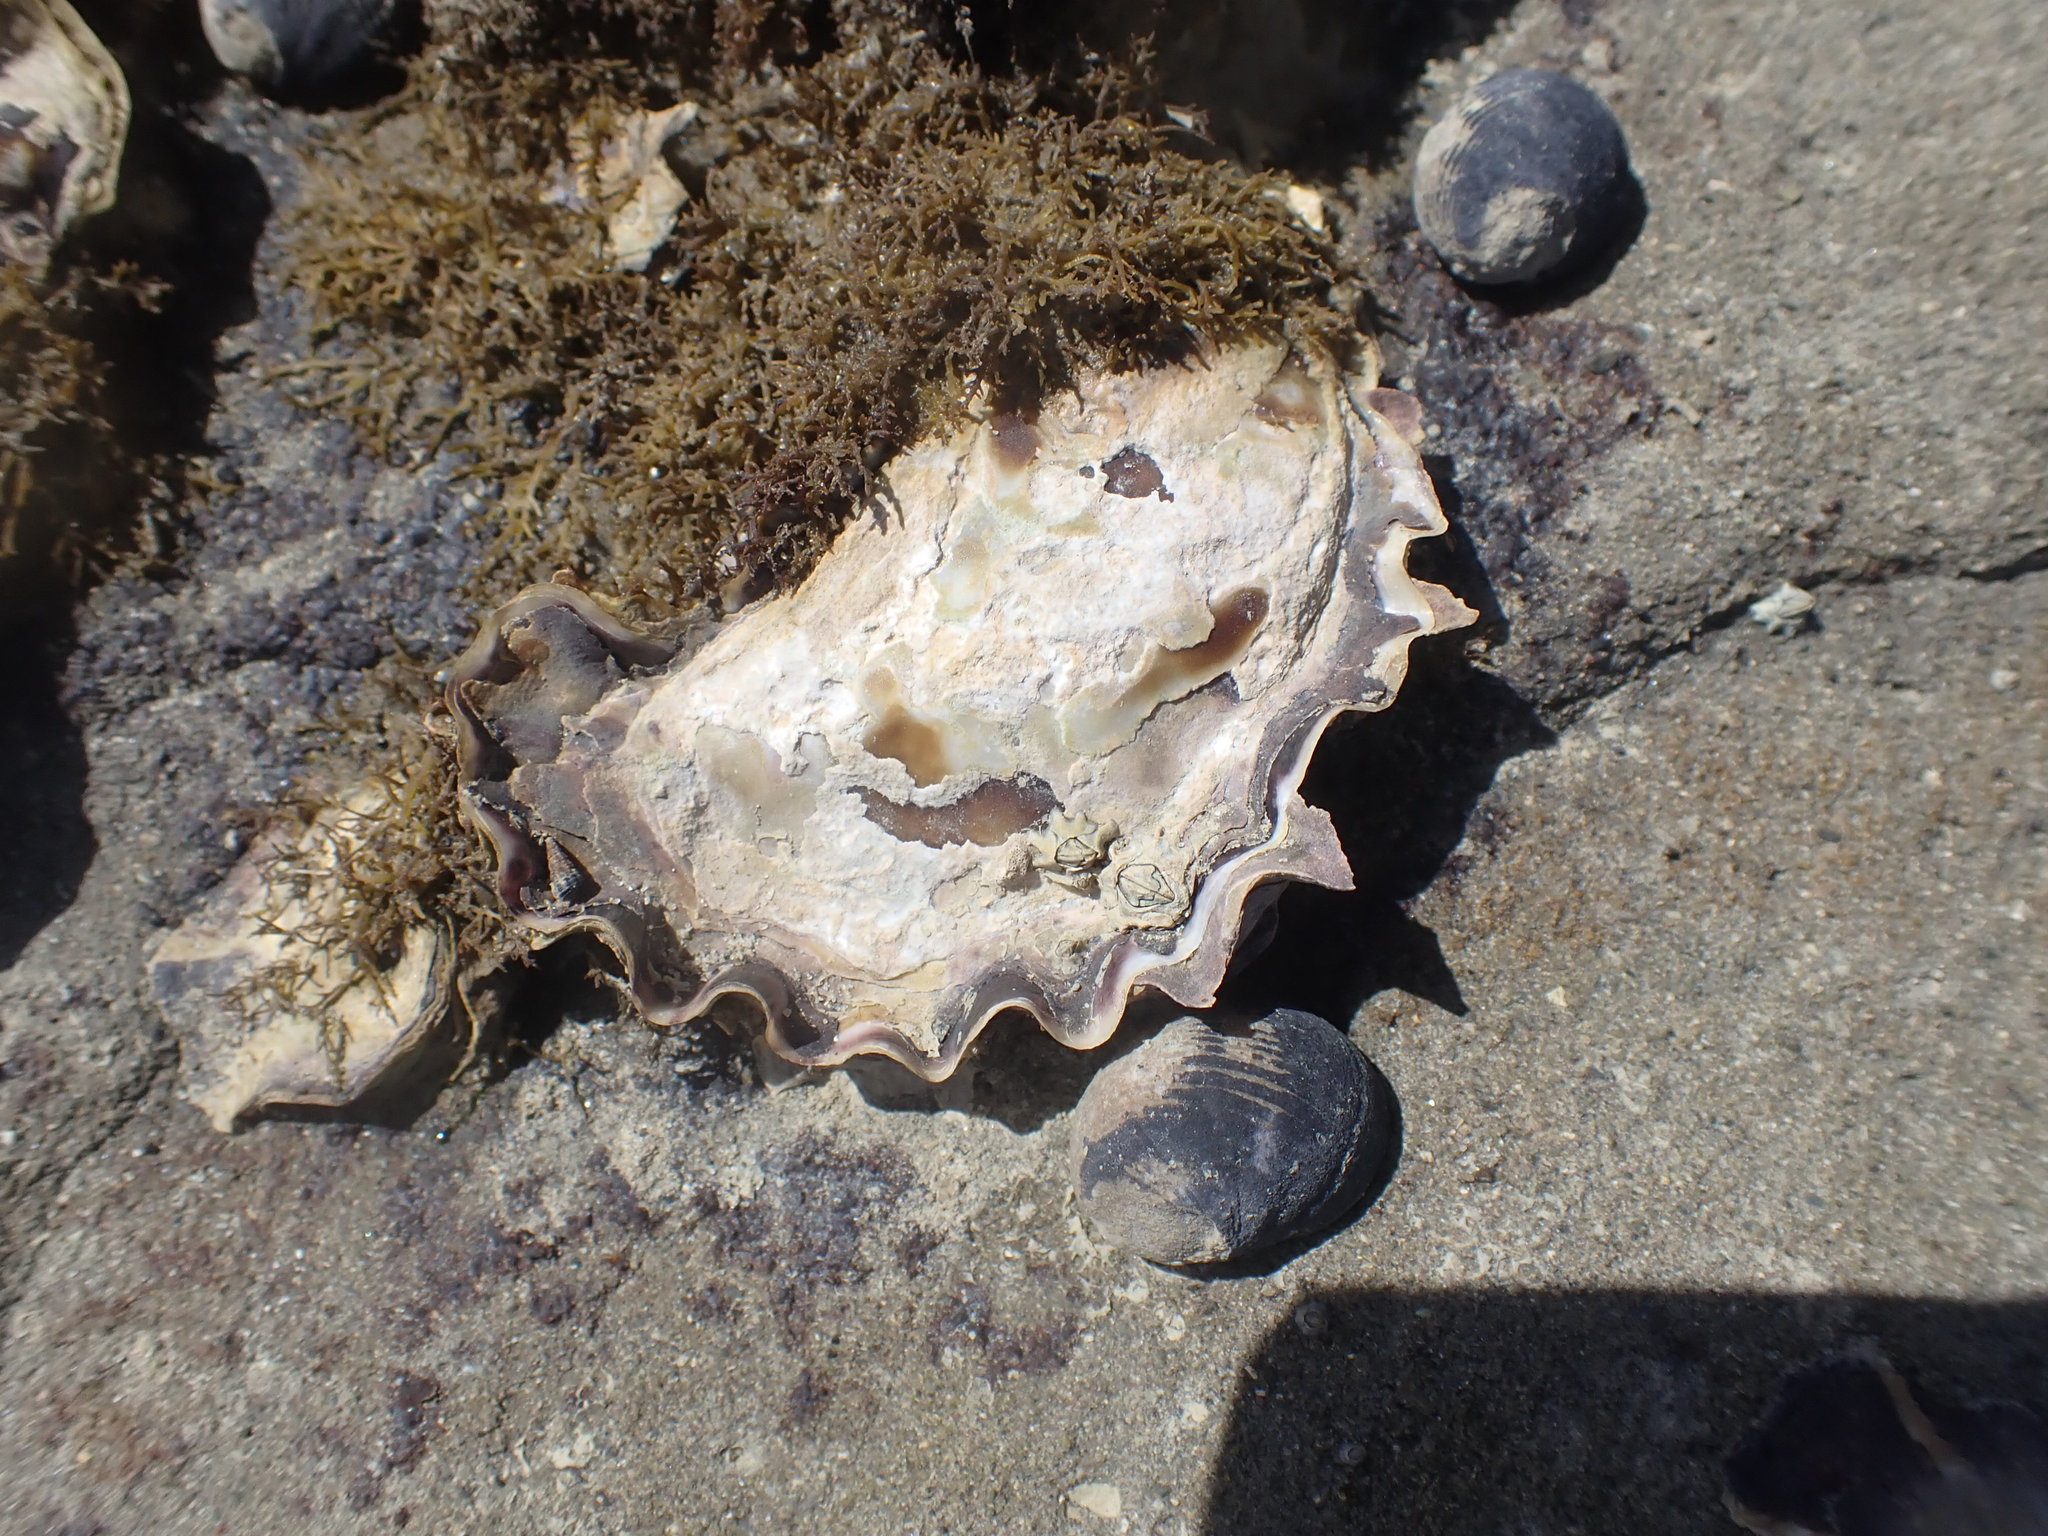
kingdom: Animalia
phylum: Mollusca
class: Bivalvia
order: Ostreida
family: Ostreidae
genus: Saccostrea
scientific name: Saccostrea glomerata
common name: Sydney cupped oyster
